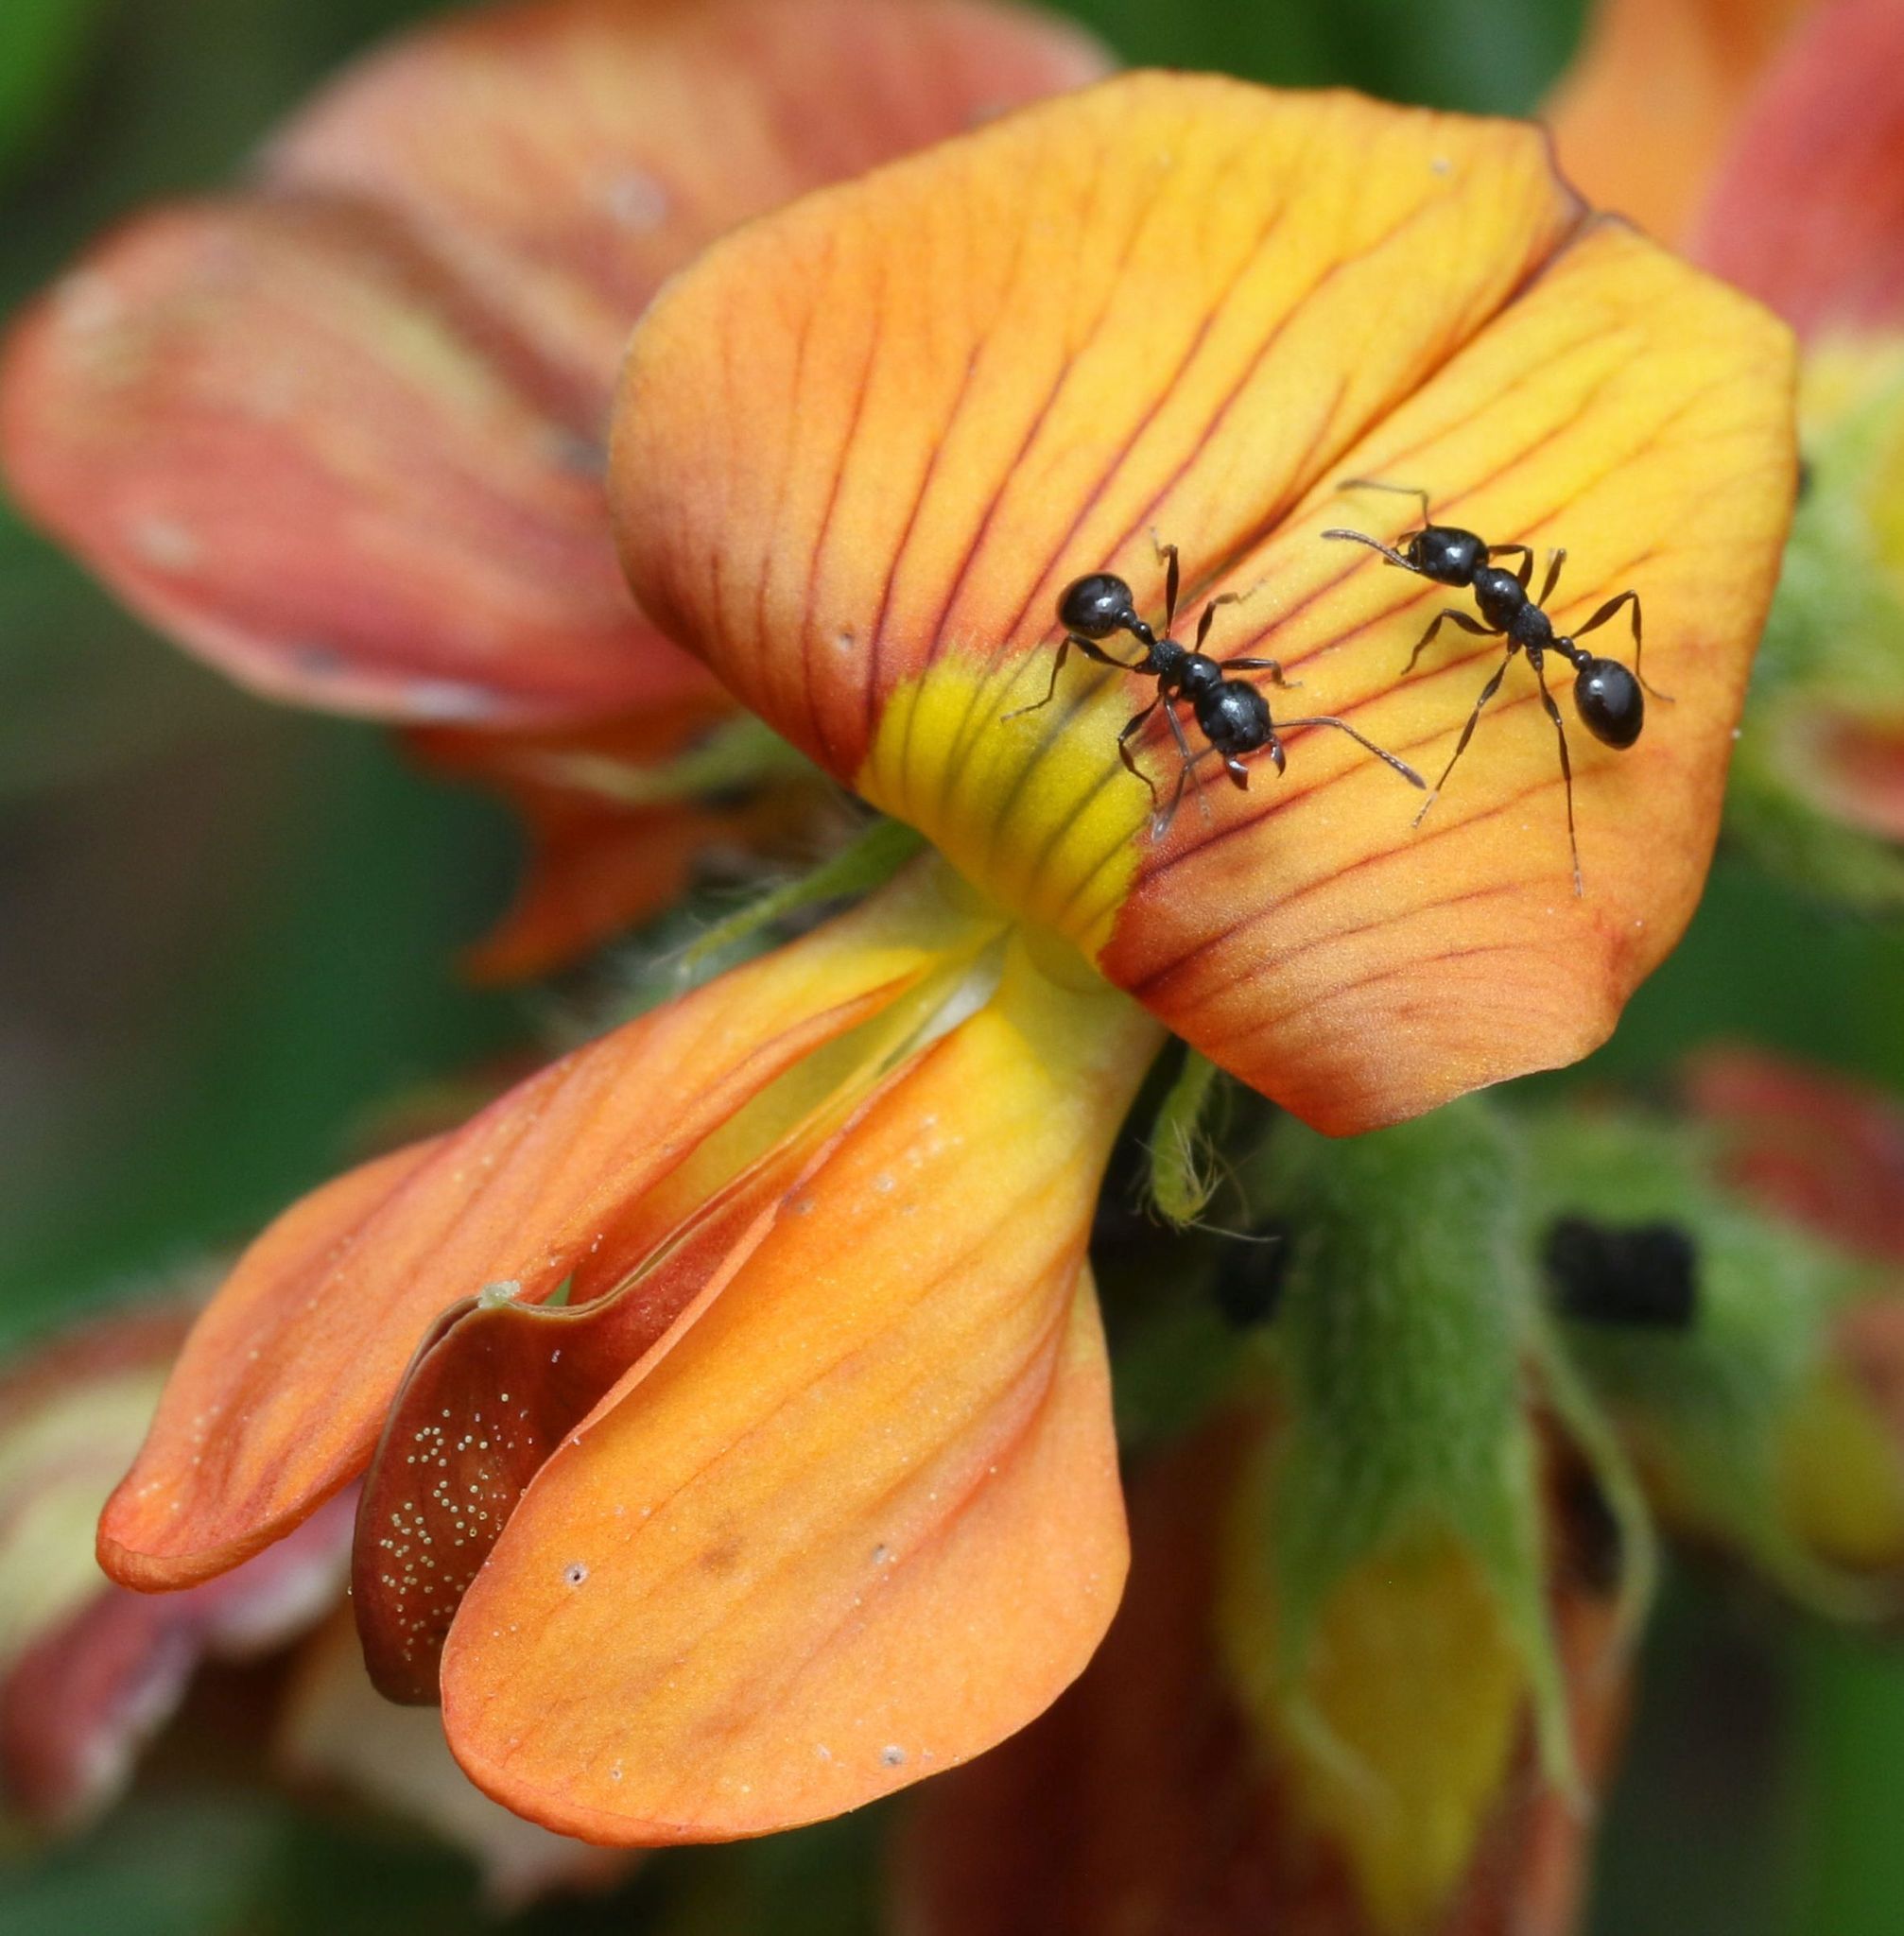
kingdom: Animalia
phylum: Arthropoda
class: Insecta
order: Hymenoptera
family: Formicidae
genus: Monomorium
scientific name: Monomorium paternum
